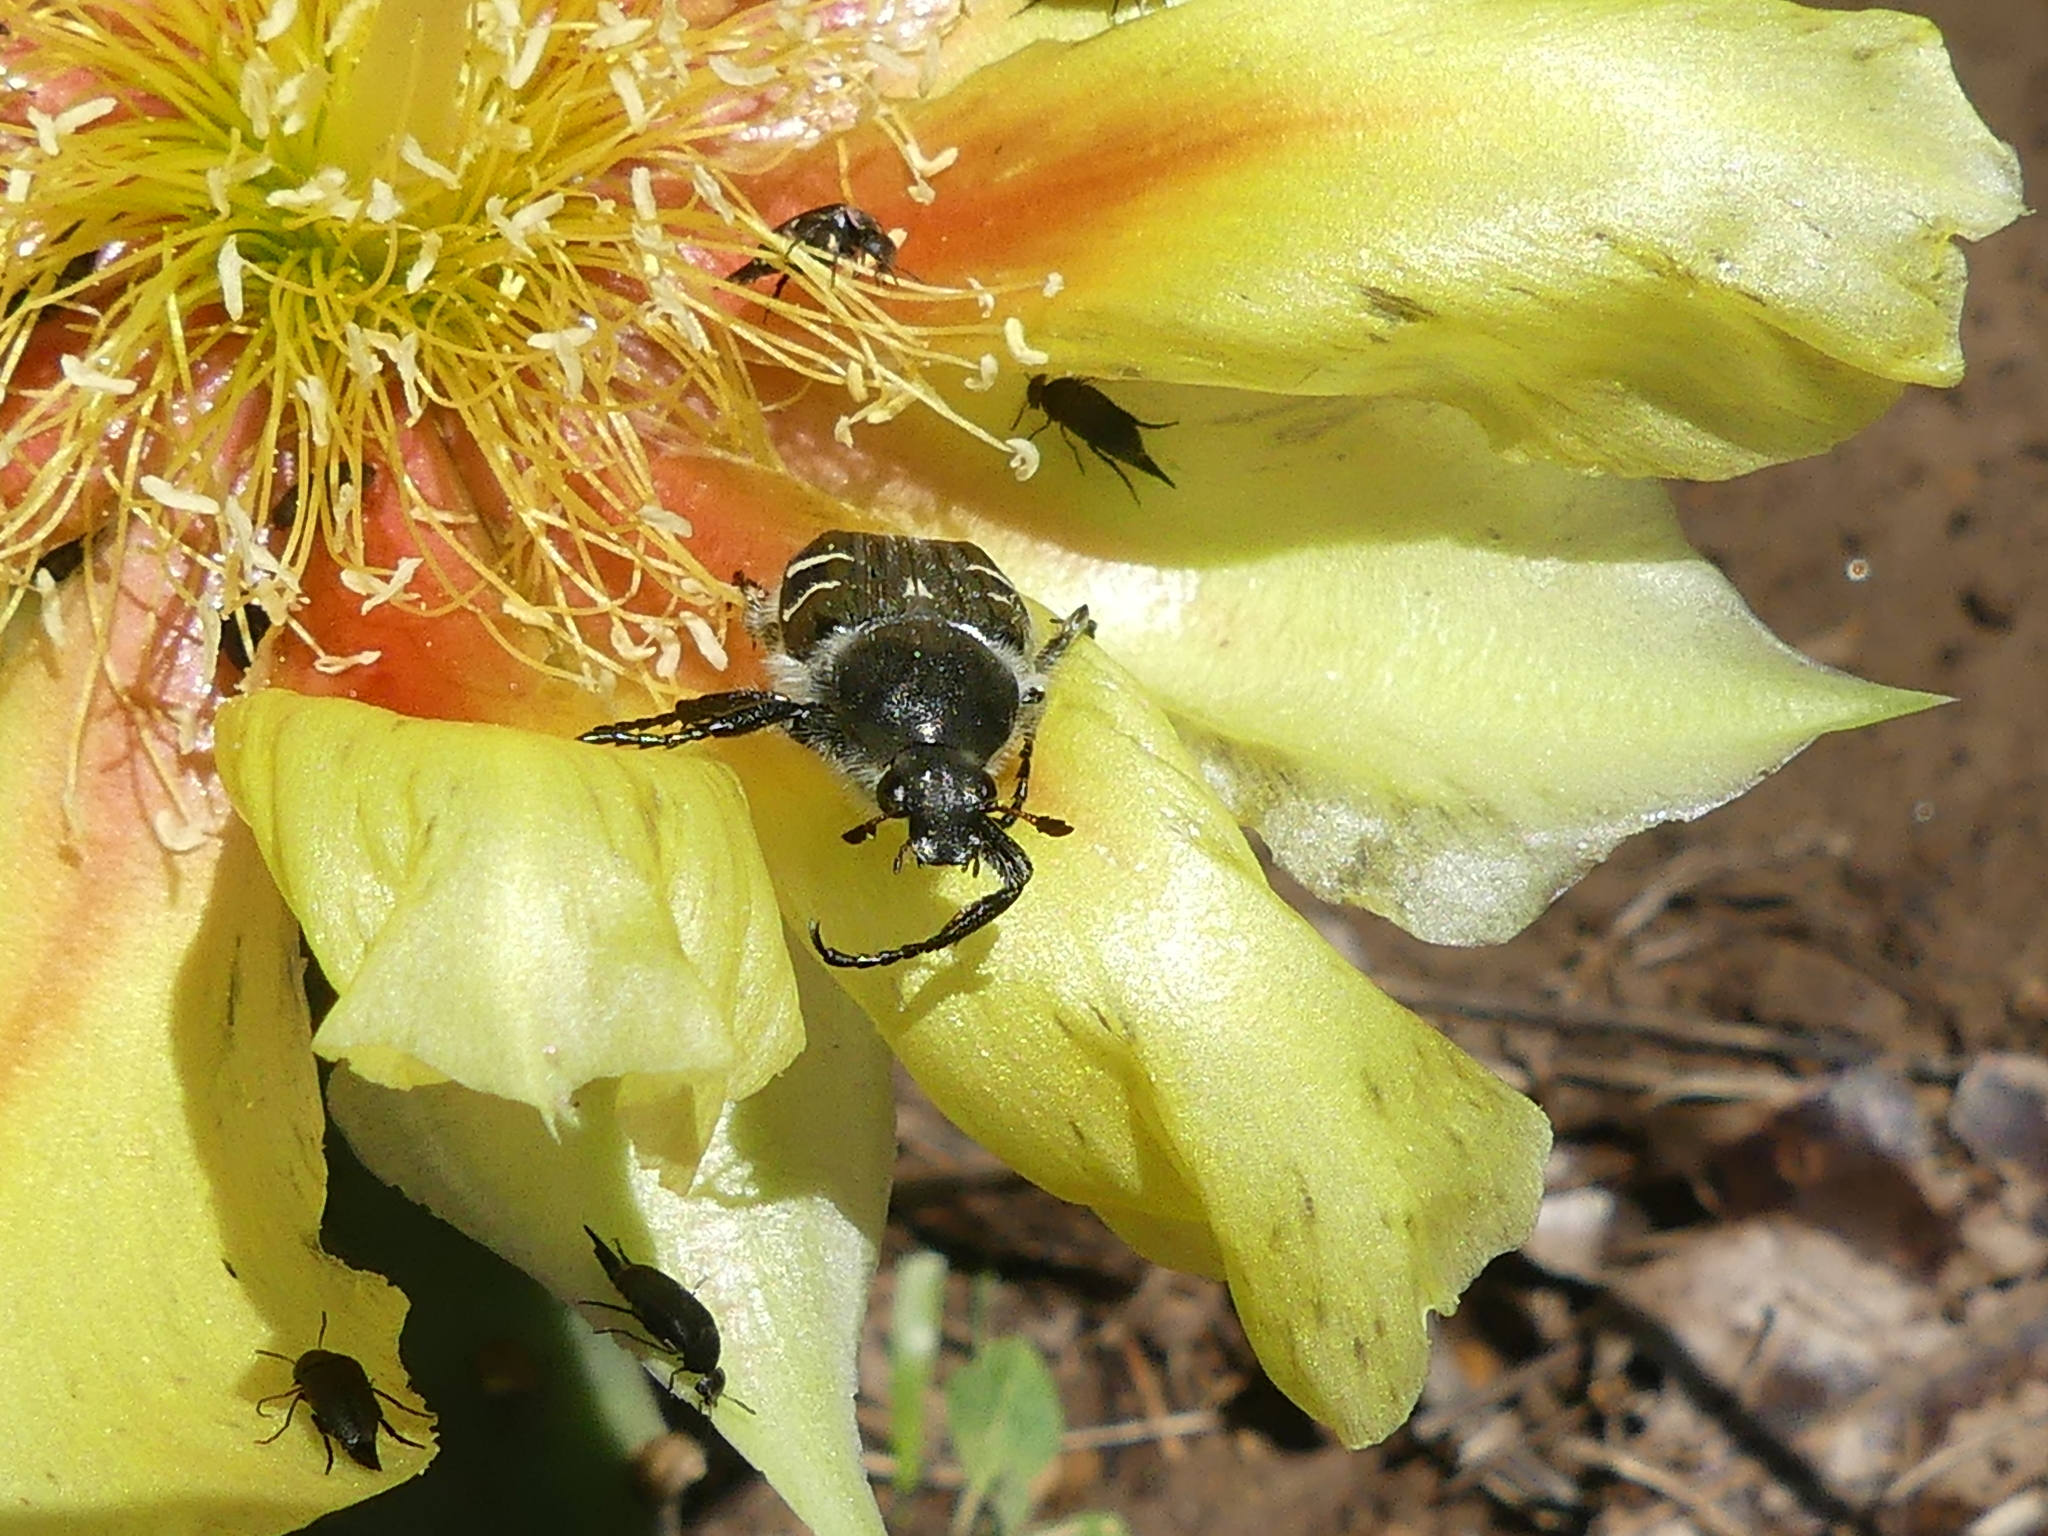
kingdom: Animalia
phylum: Arthropoda
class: Insecta
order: Coleoptera
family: Scarabaeidae
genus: Trichiotinus
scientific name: Trichiotinus texanus
